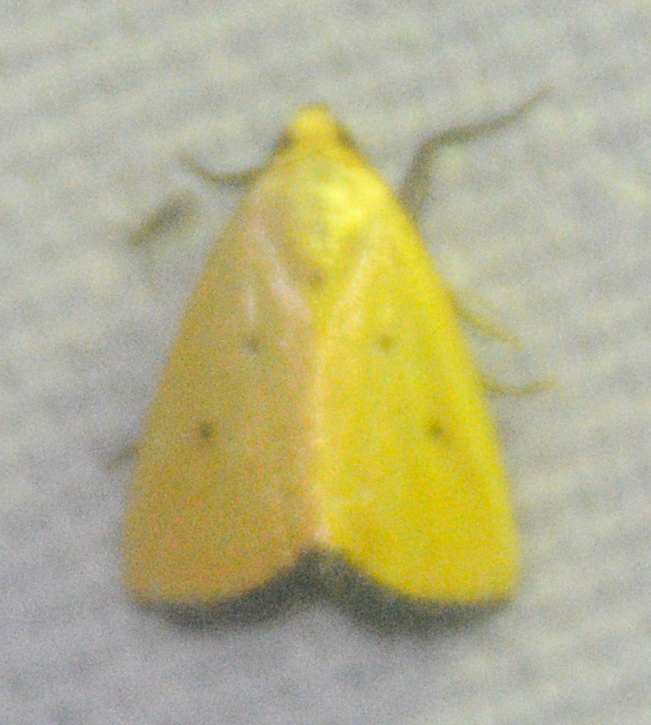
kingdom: Animalia
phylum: Arthropoda
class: Insecta
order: Lepidoptera
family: Noctuidae
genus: Marimatha
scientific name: Marimatha nigrofimbria
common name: Black-bordered lemon moth
